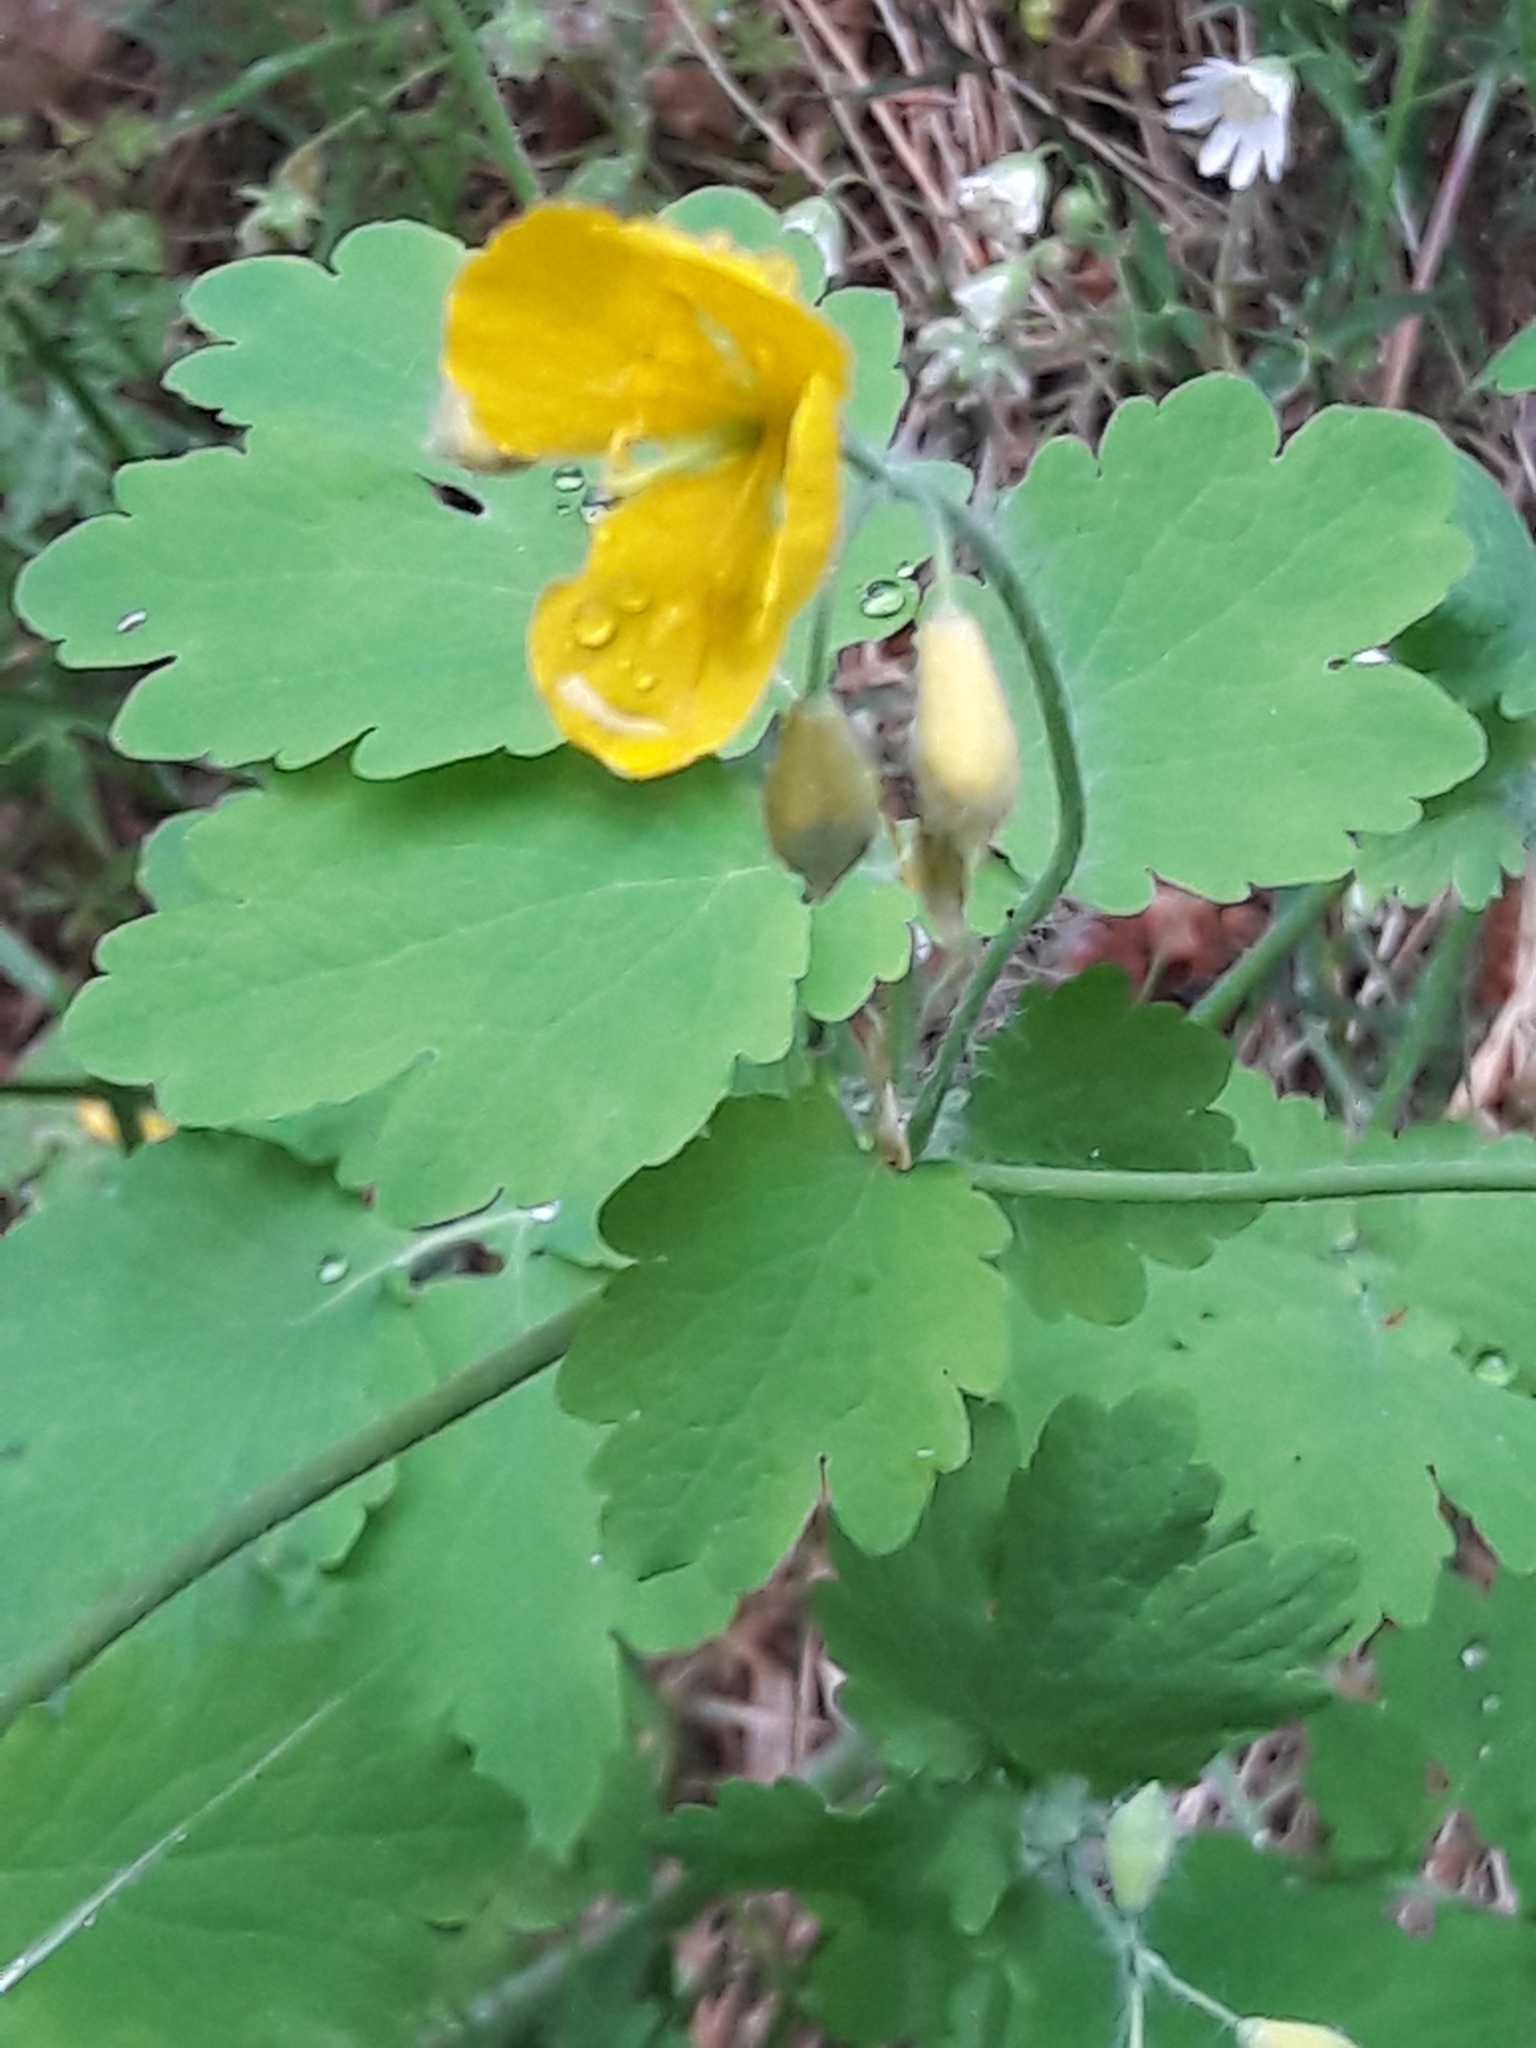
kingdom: Plantae
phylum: Tracheophyta
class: Magnoliopsida
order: Ranunculales
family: Papaveraceae
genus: Chelidonium
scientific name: Chelidonium majus
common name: Greater celandine
